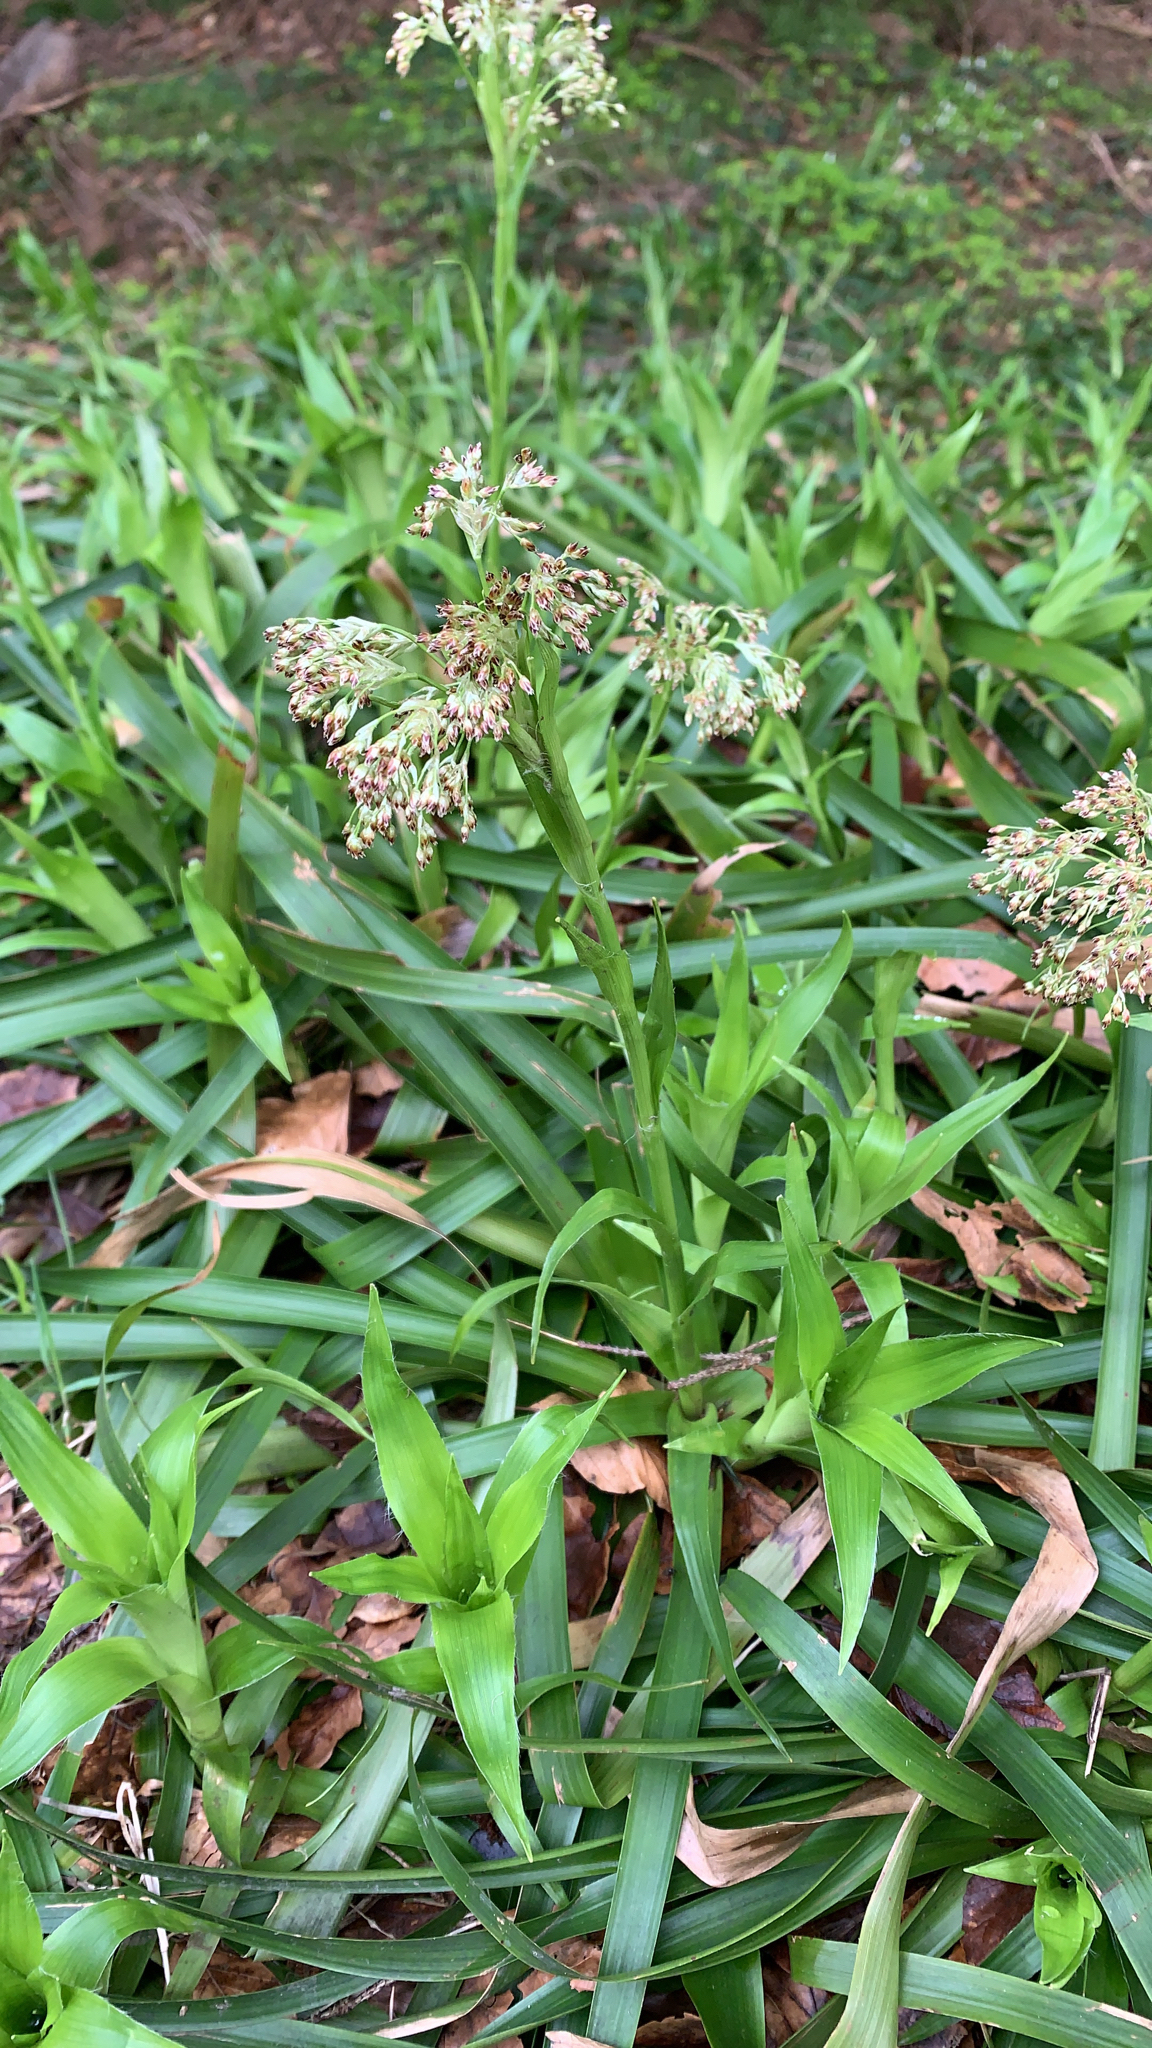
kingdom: Plantae
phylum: Tracheophyta
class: Liliopsida
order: Poales
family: Juncaceae
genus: Luzula
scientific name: Luzula sylvatica
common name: Great wood-rush
